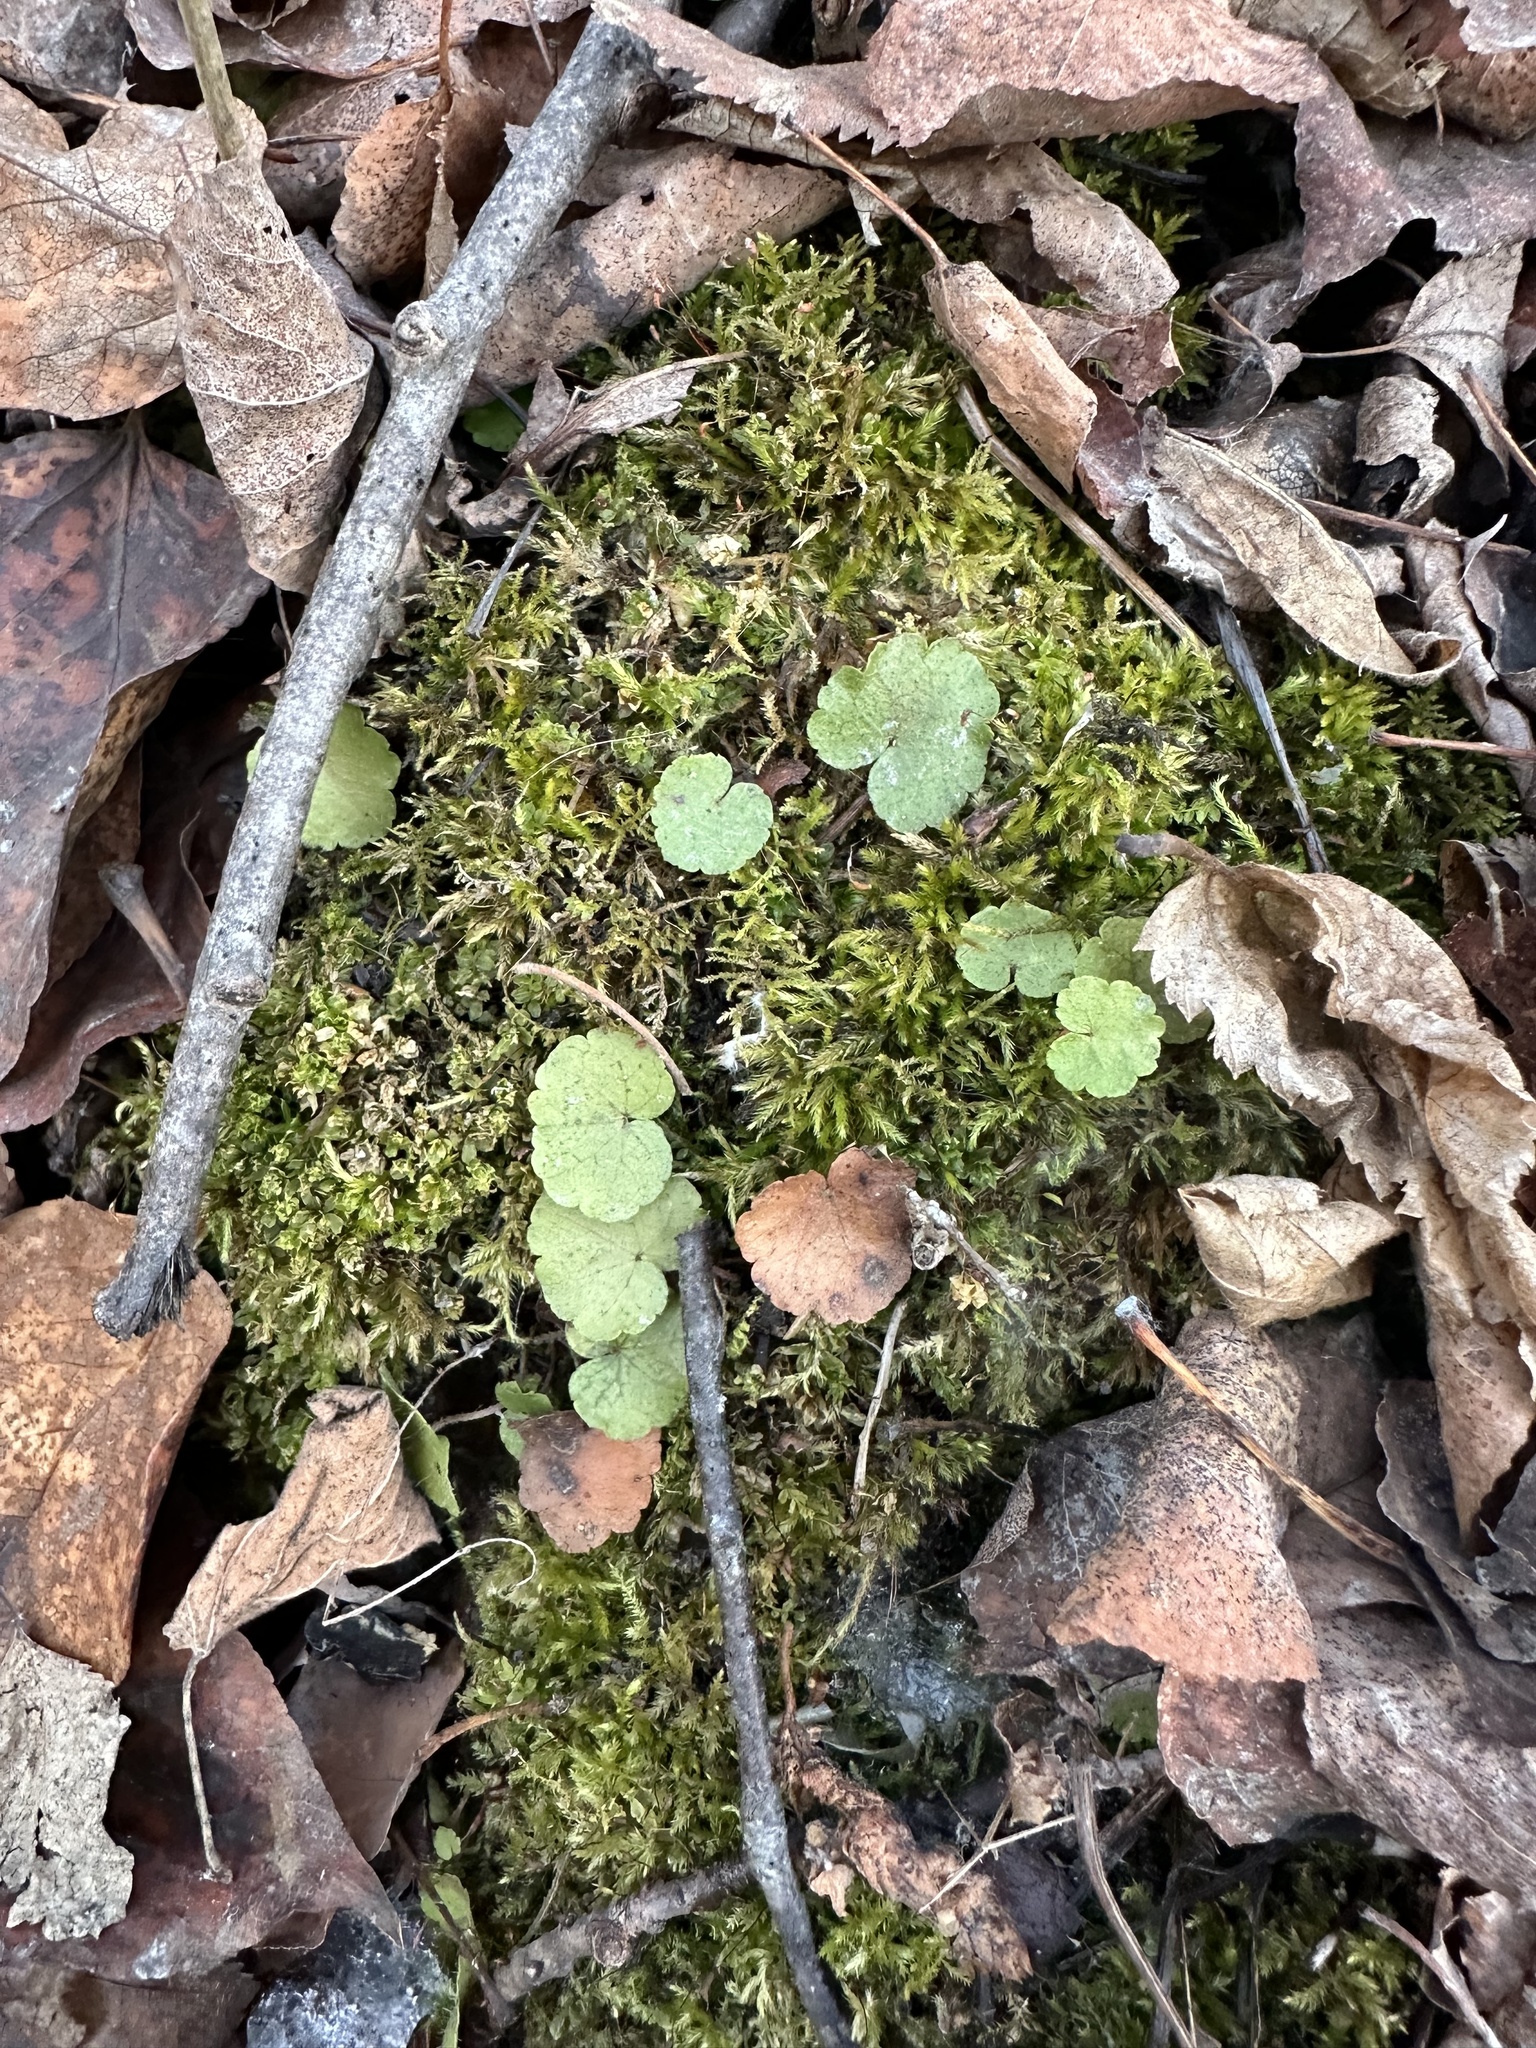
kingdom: Plantae
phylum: Tracheophyta
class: Magnoliopsida
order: Saxifragales
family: Saxifragaceae
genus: Mitella
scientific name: Mitella nuda
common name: Bare-stemmed bishop's-cap
